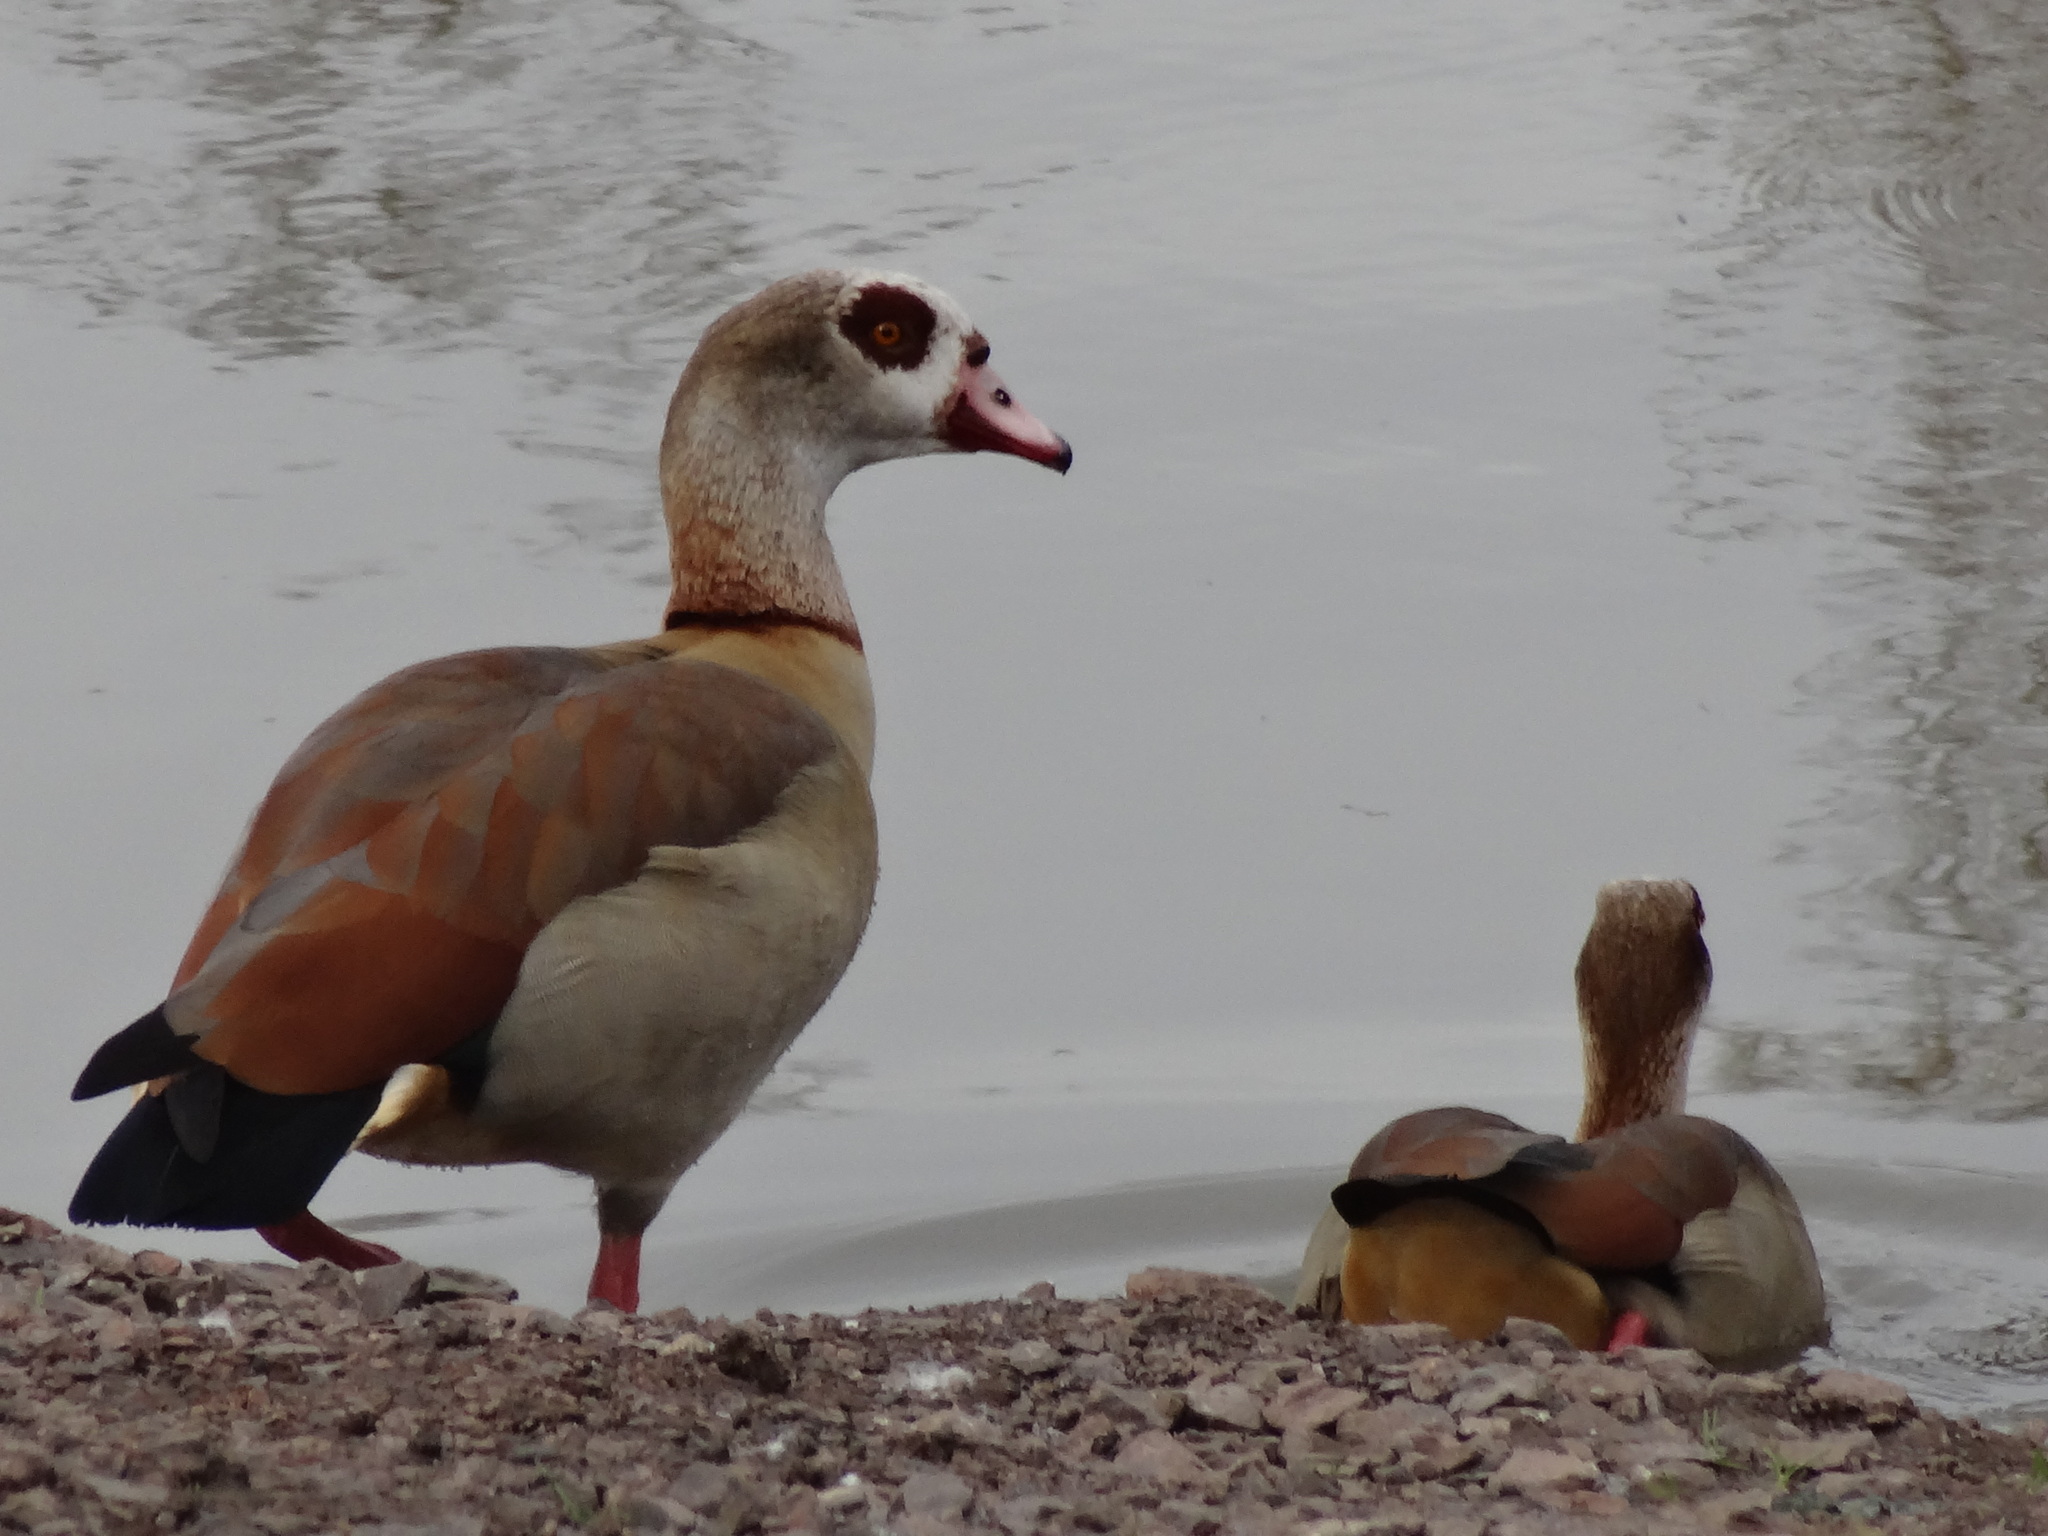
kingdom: Animalia
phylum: Chordata
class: Aves
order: Anseriformes
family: Anatidae
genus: Alopochen
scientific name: Alopochen aegyptiaca
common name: Egyptian goose
